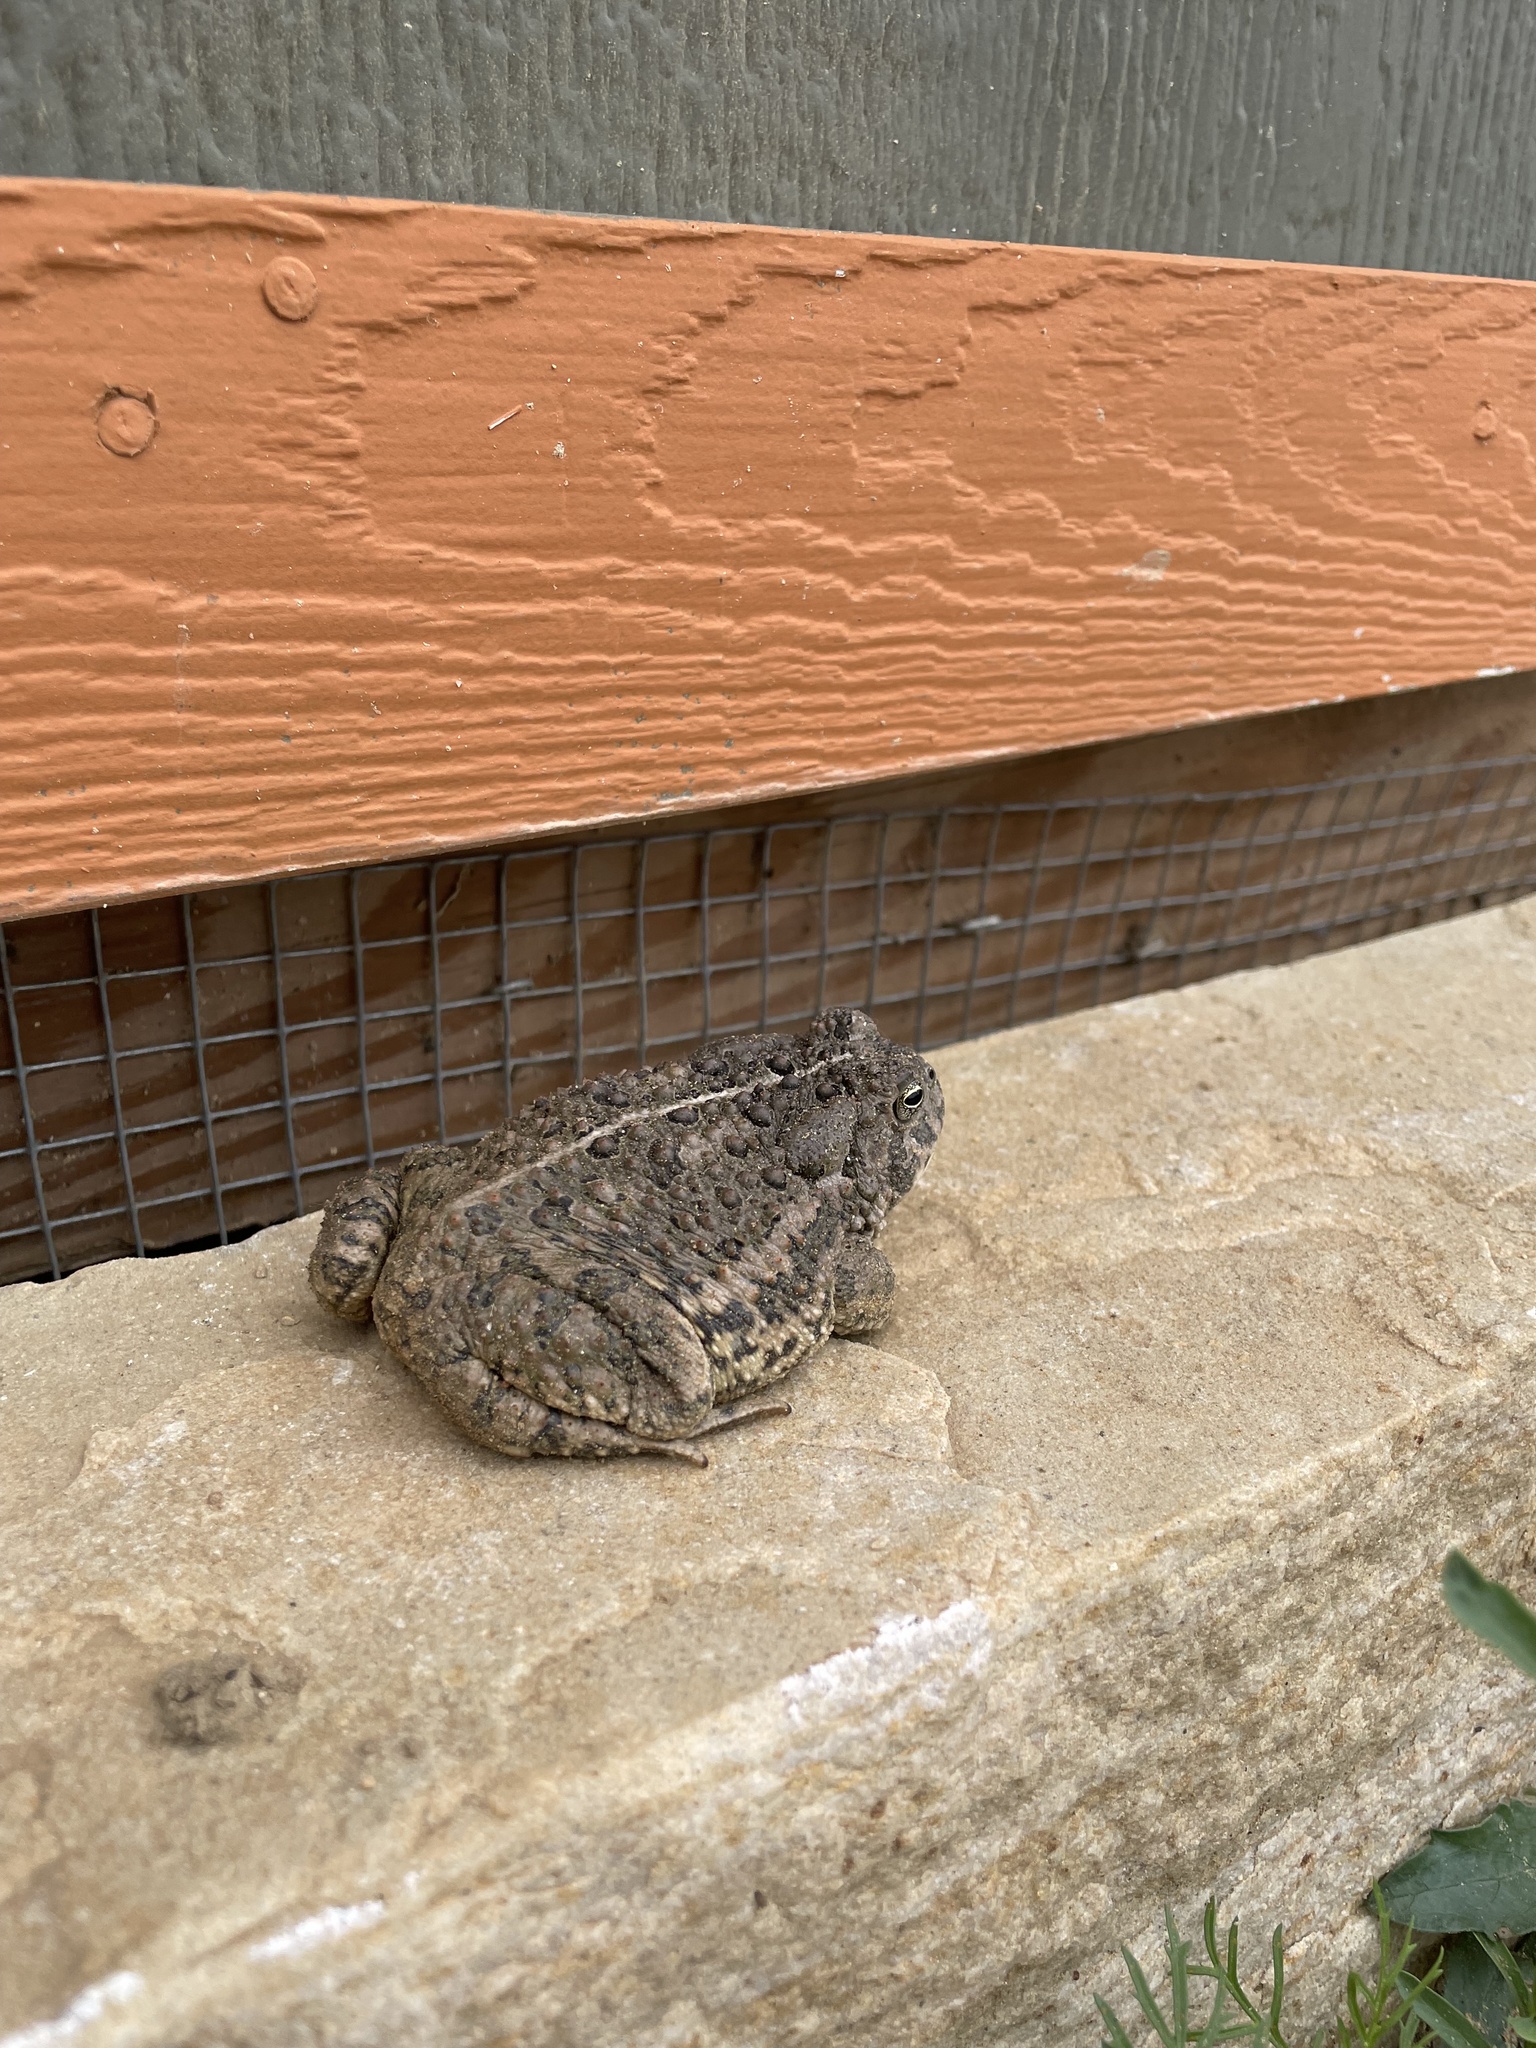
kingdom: Animalia
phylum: Chordata
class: Amphibia
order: Anura
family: Bufonidae
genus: Anaxyrus
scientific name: Anaxyrus woodhousii
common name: Woodhouse's toad
